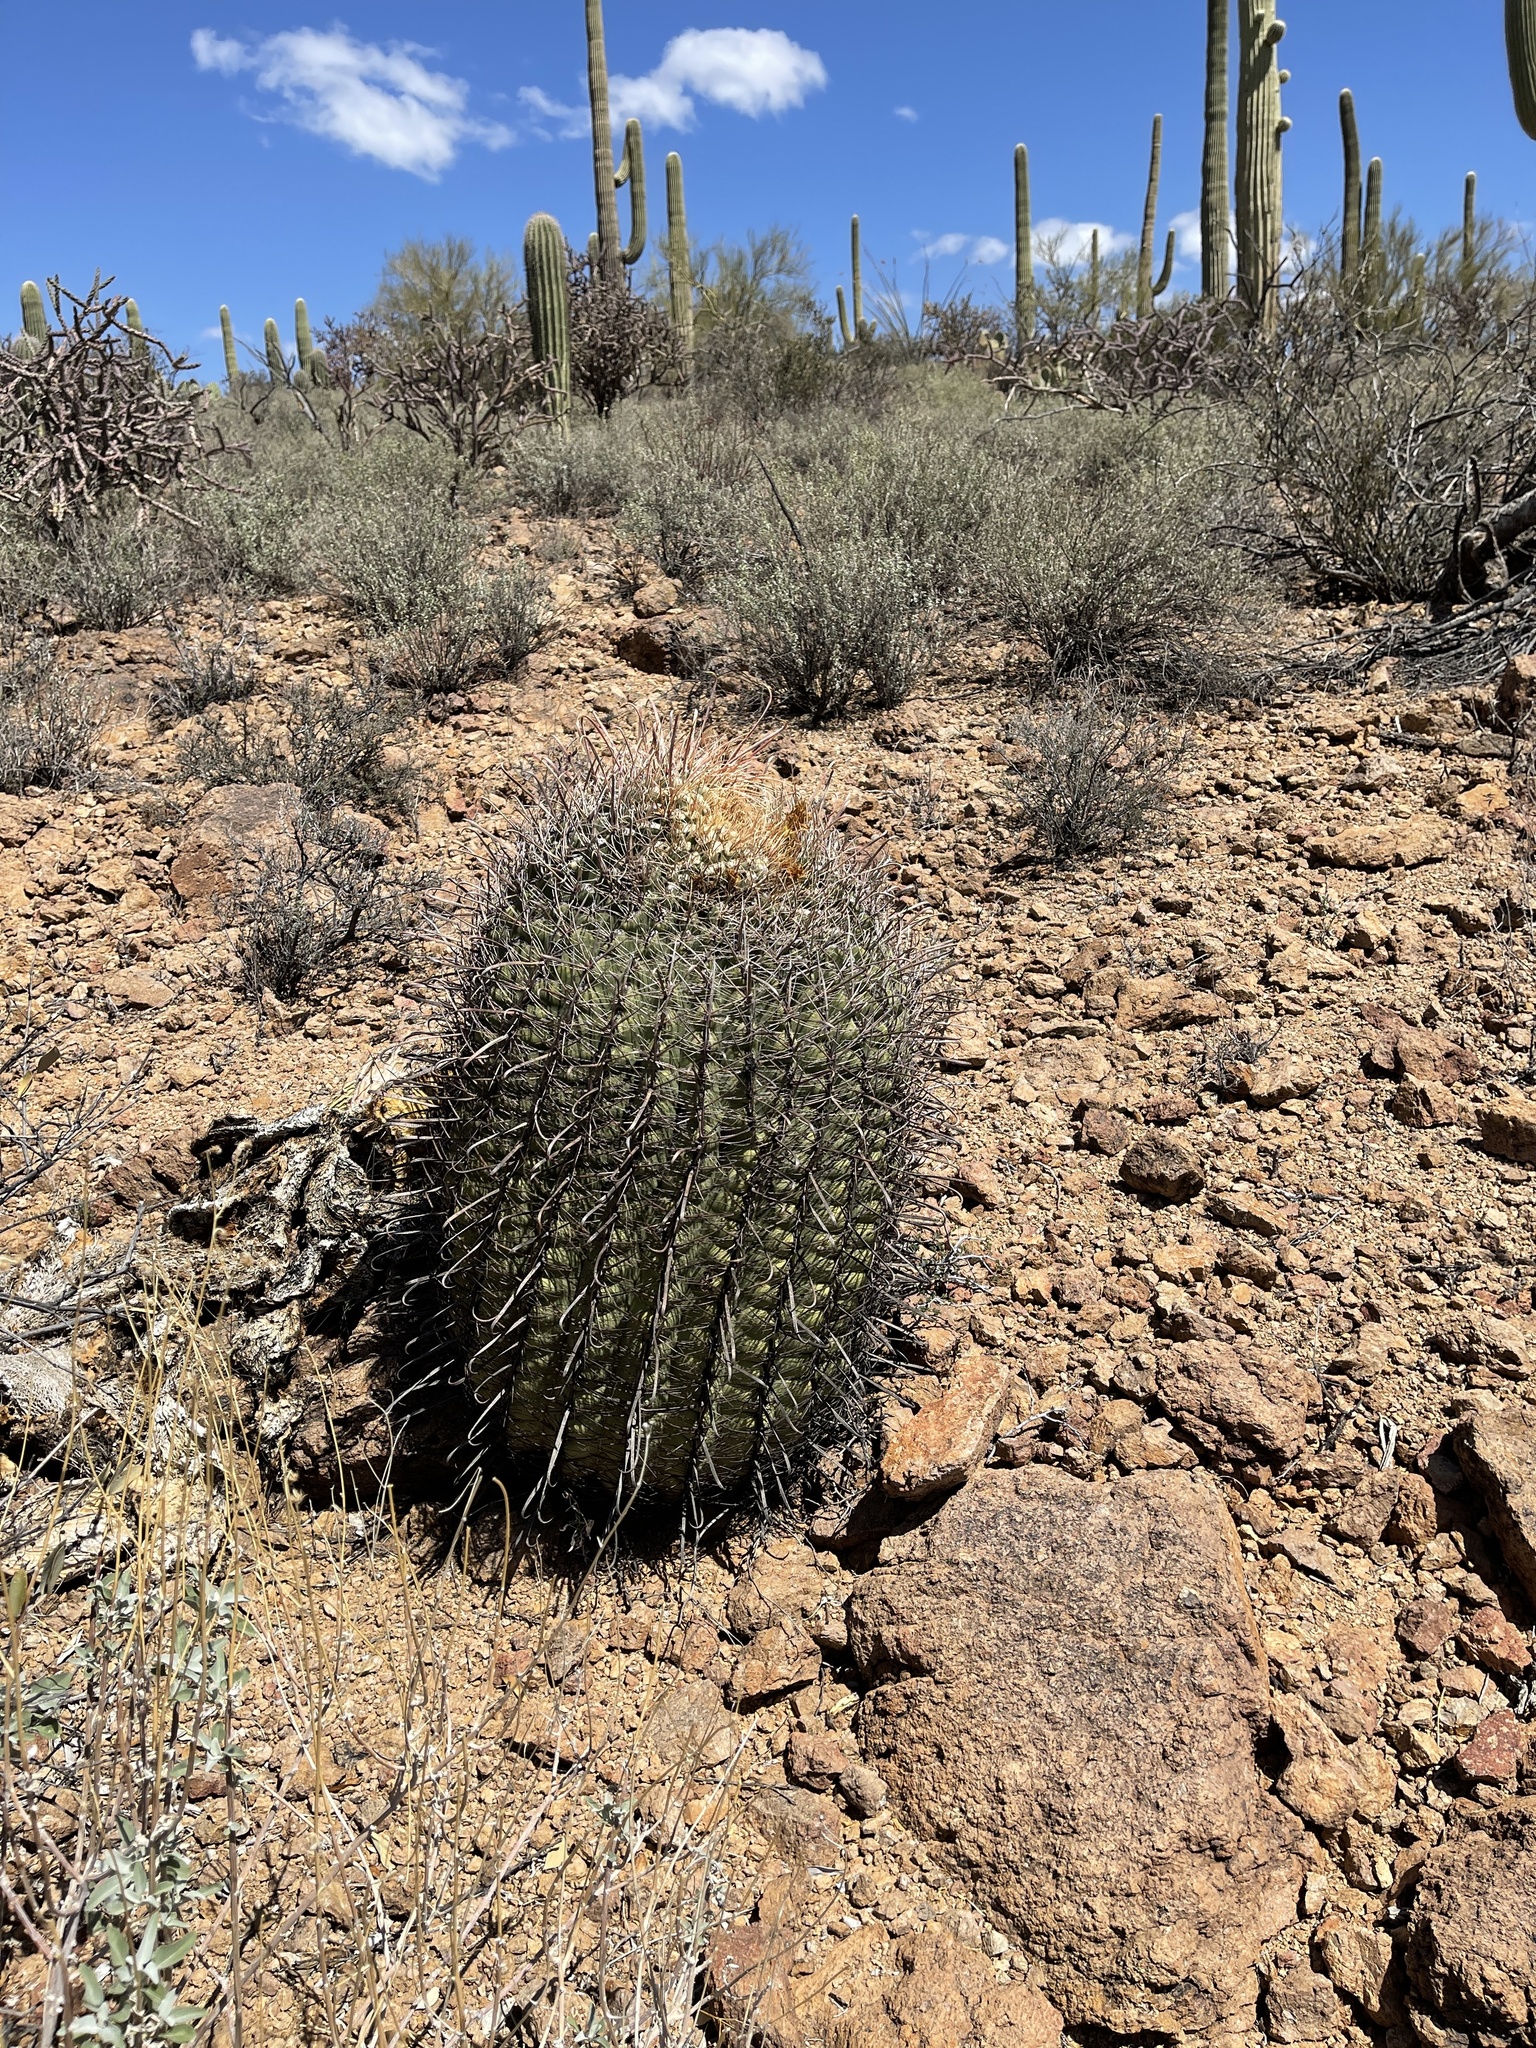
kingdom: Plantae
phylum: Tracheophyta
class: Magnoliopsida
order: Caryophyllales
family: Cactaceae
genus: Ferocactus
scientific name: Ferocactus wislizeni
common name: Candy barrel cactus
